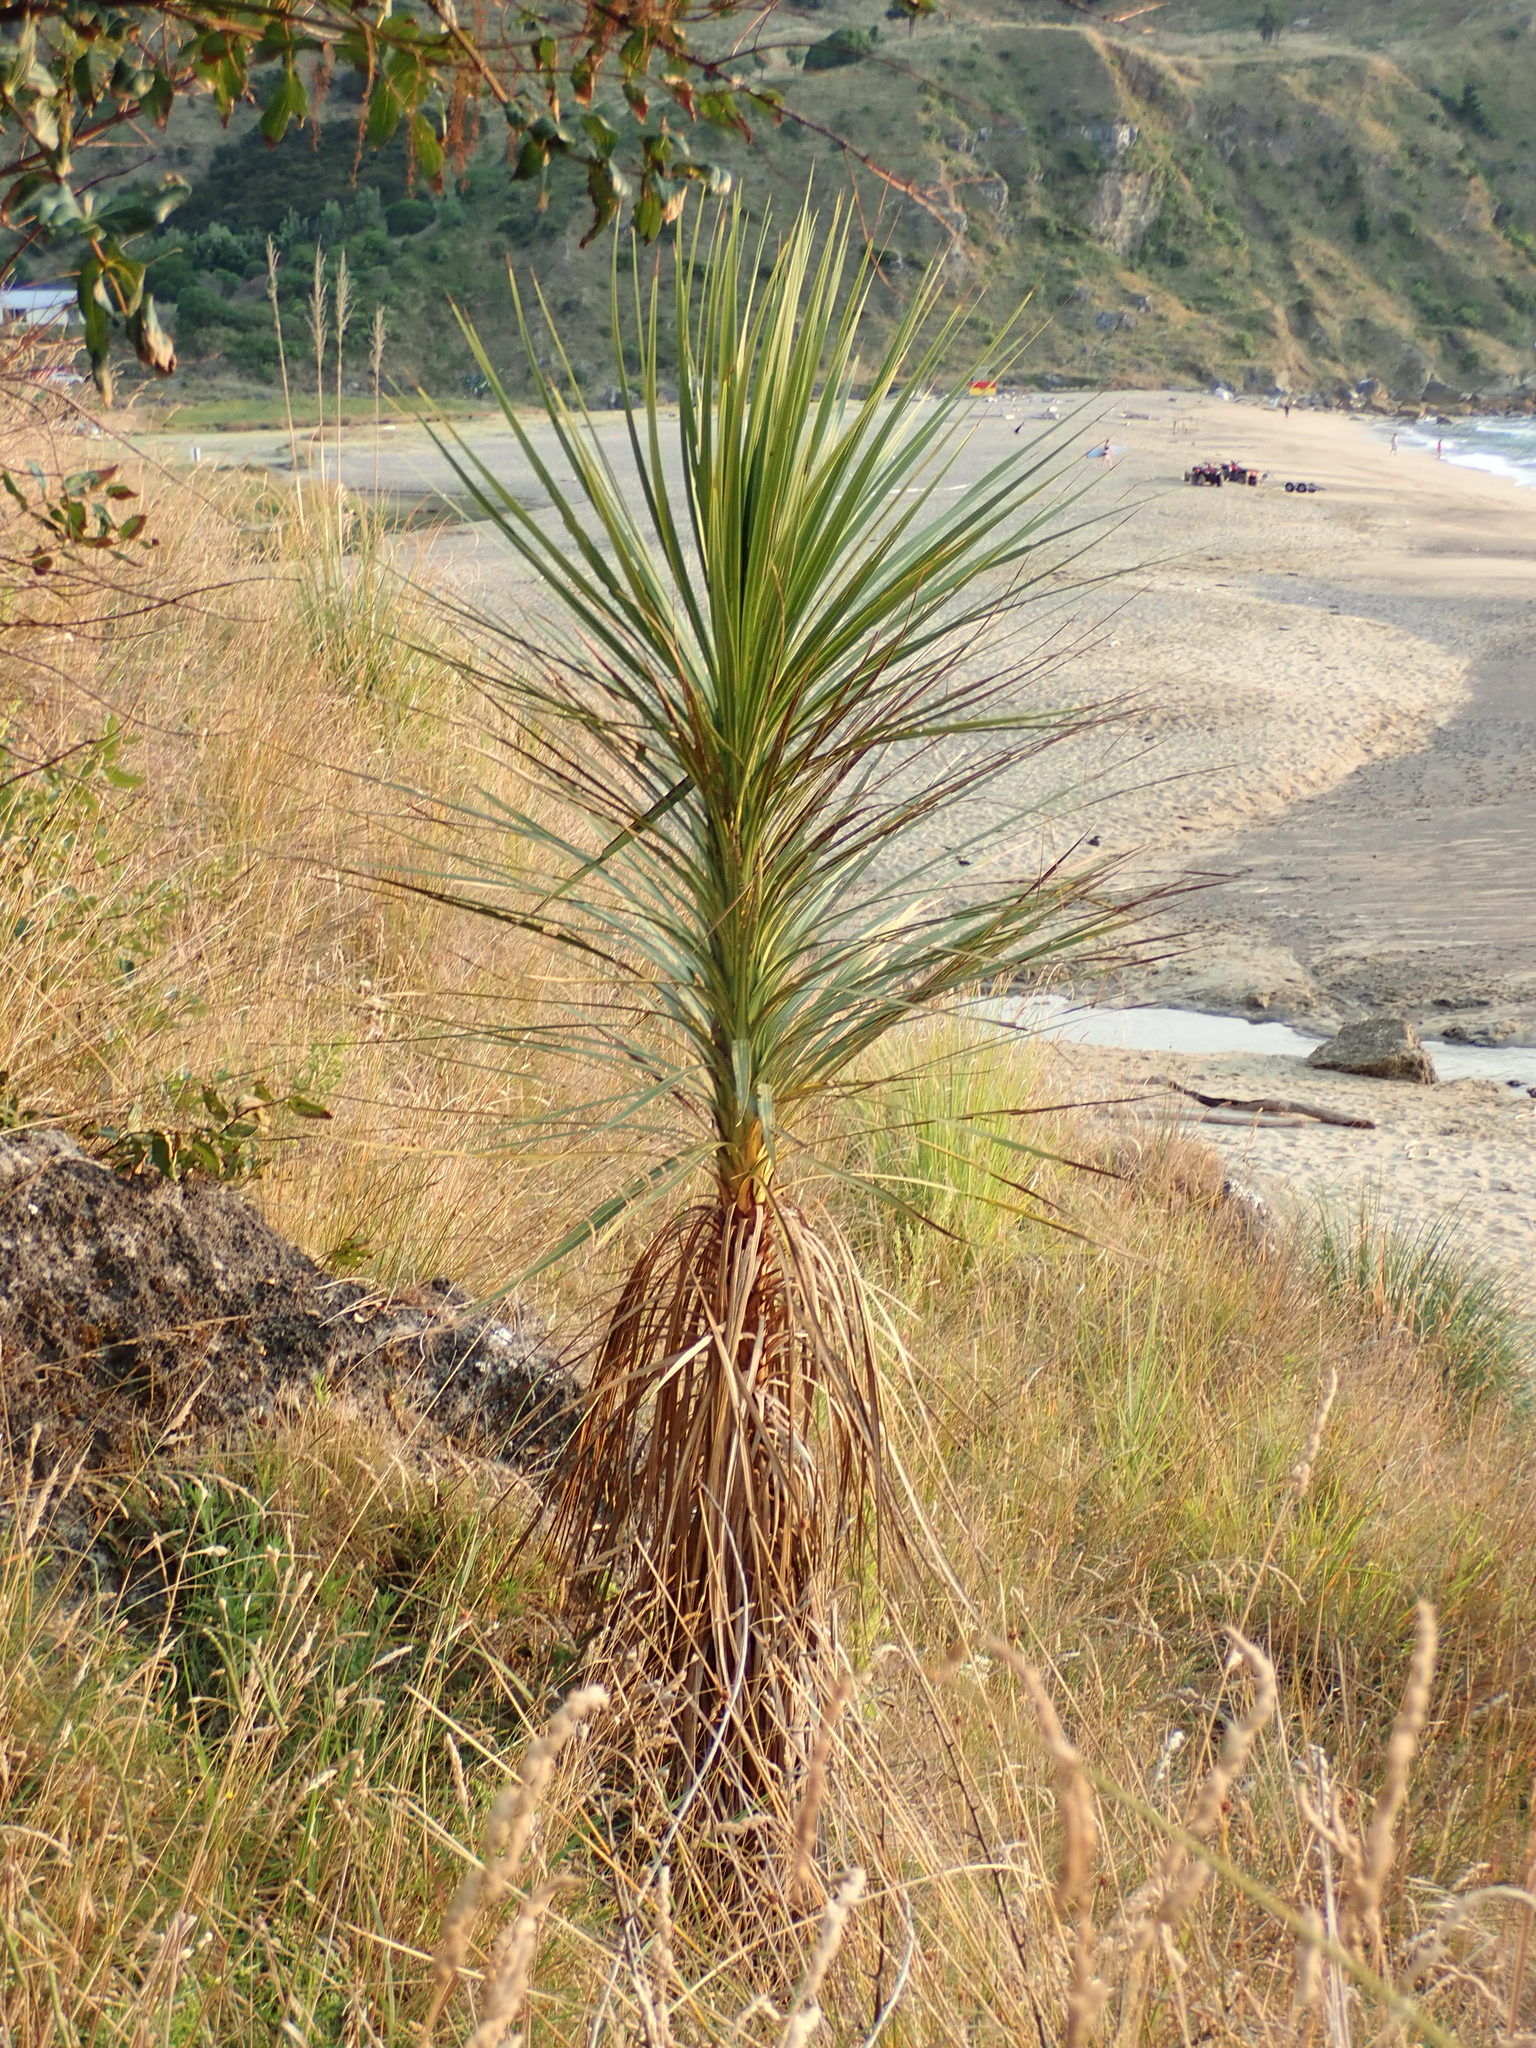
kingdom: Plantae
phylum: Tracheophyta
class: Liliopsida
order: Asparagales
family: Asparagaceae
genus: Cordyline
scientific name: Cordyline australis
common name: Cabbage-palm
